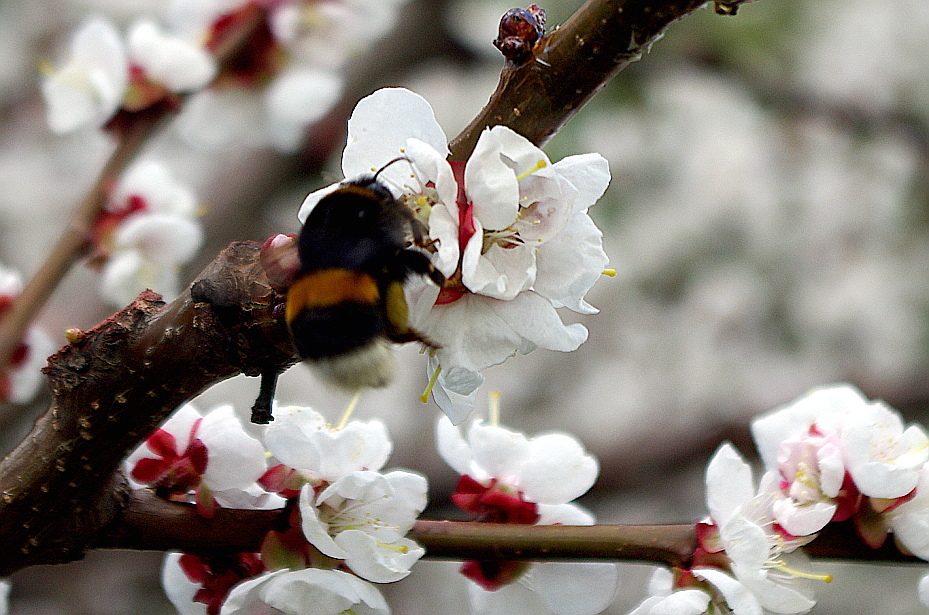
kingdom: Animalia
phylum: Arthropoda
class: Insecta
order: Hymenoptera
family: Apidae
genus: Bombus
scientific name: Bombus
